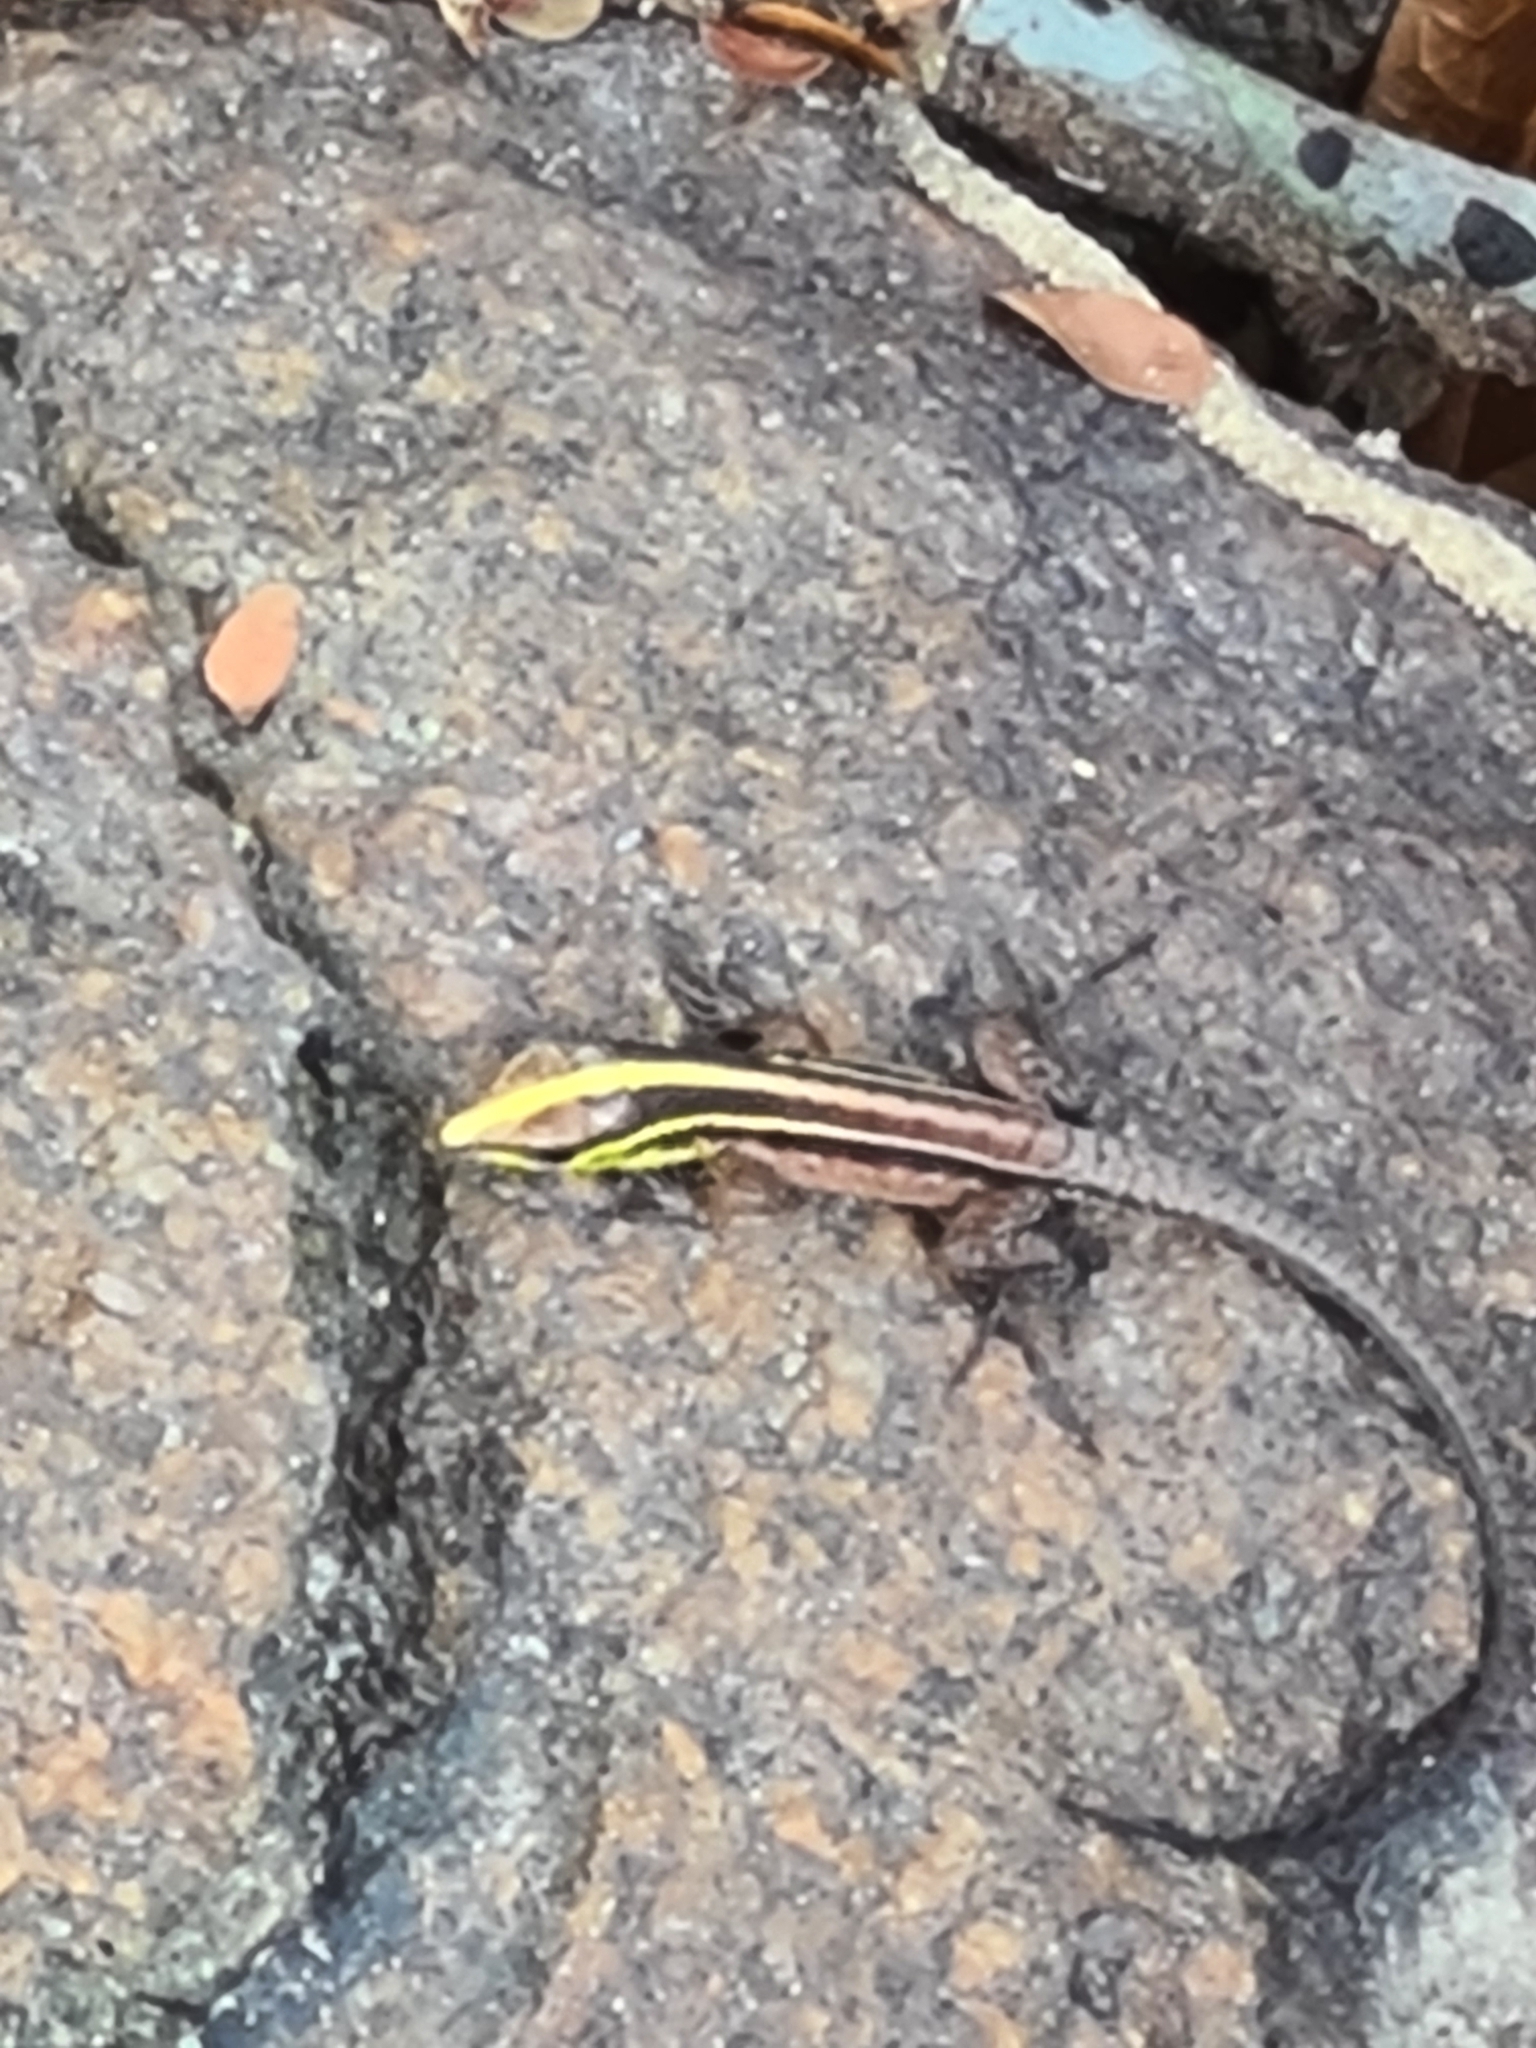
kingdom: Animalia
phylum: Chordata
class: Squamata
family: Teiidae
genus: Kentropyx
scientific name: Kentropyx calcarata
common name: Striped forest whiptail
